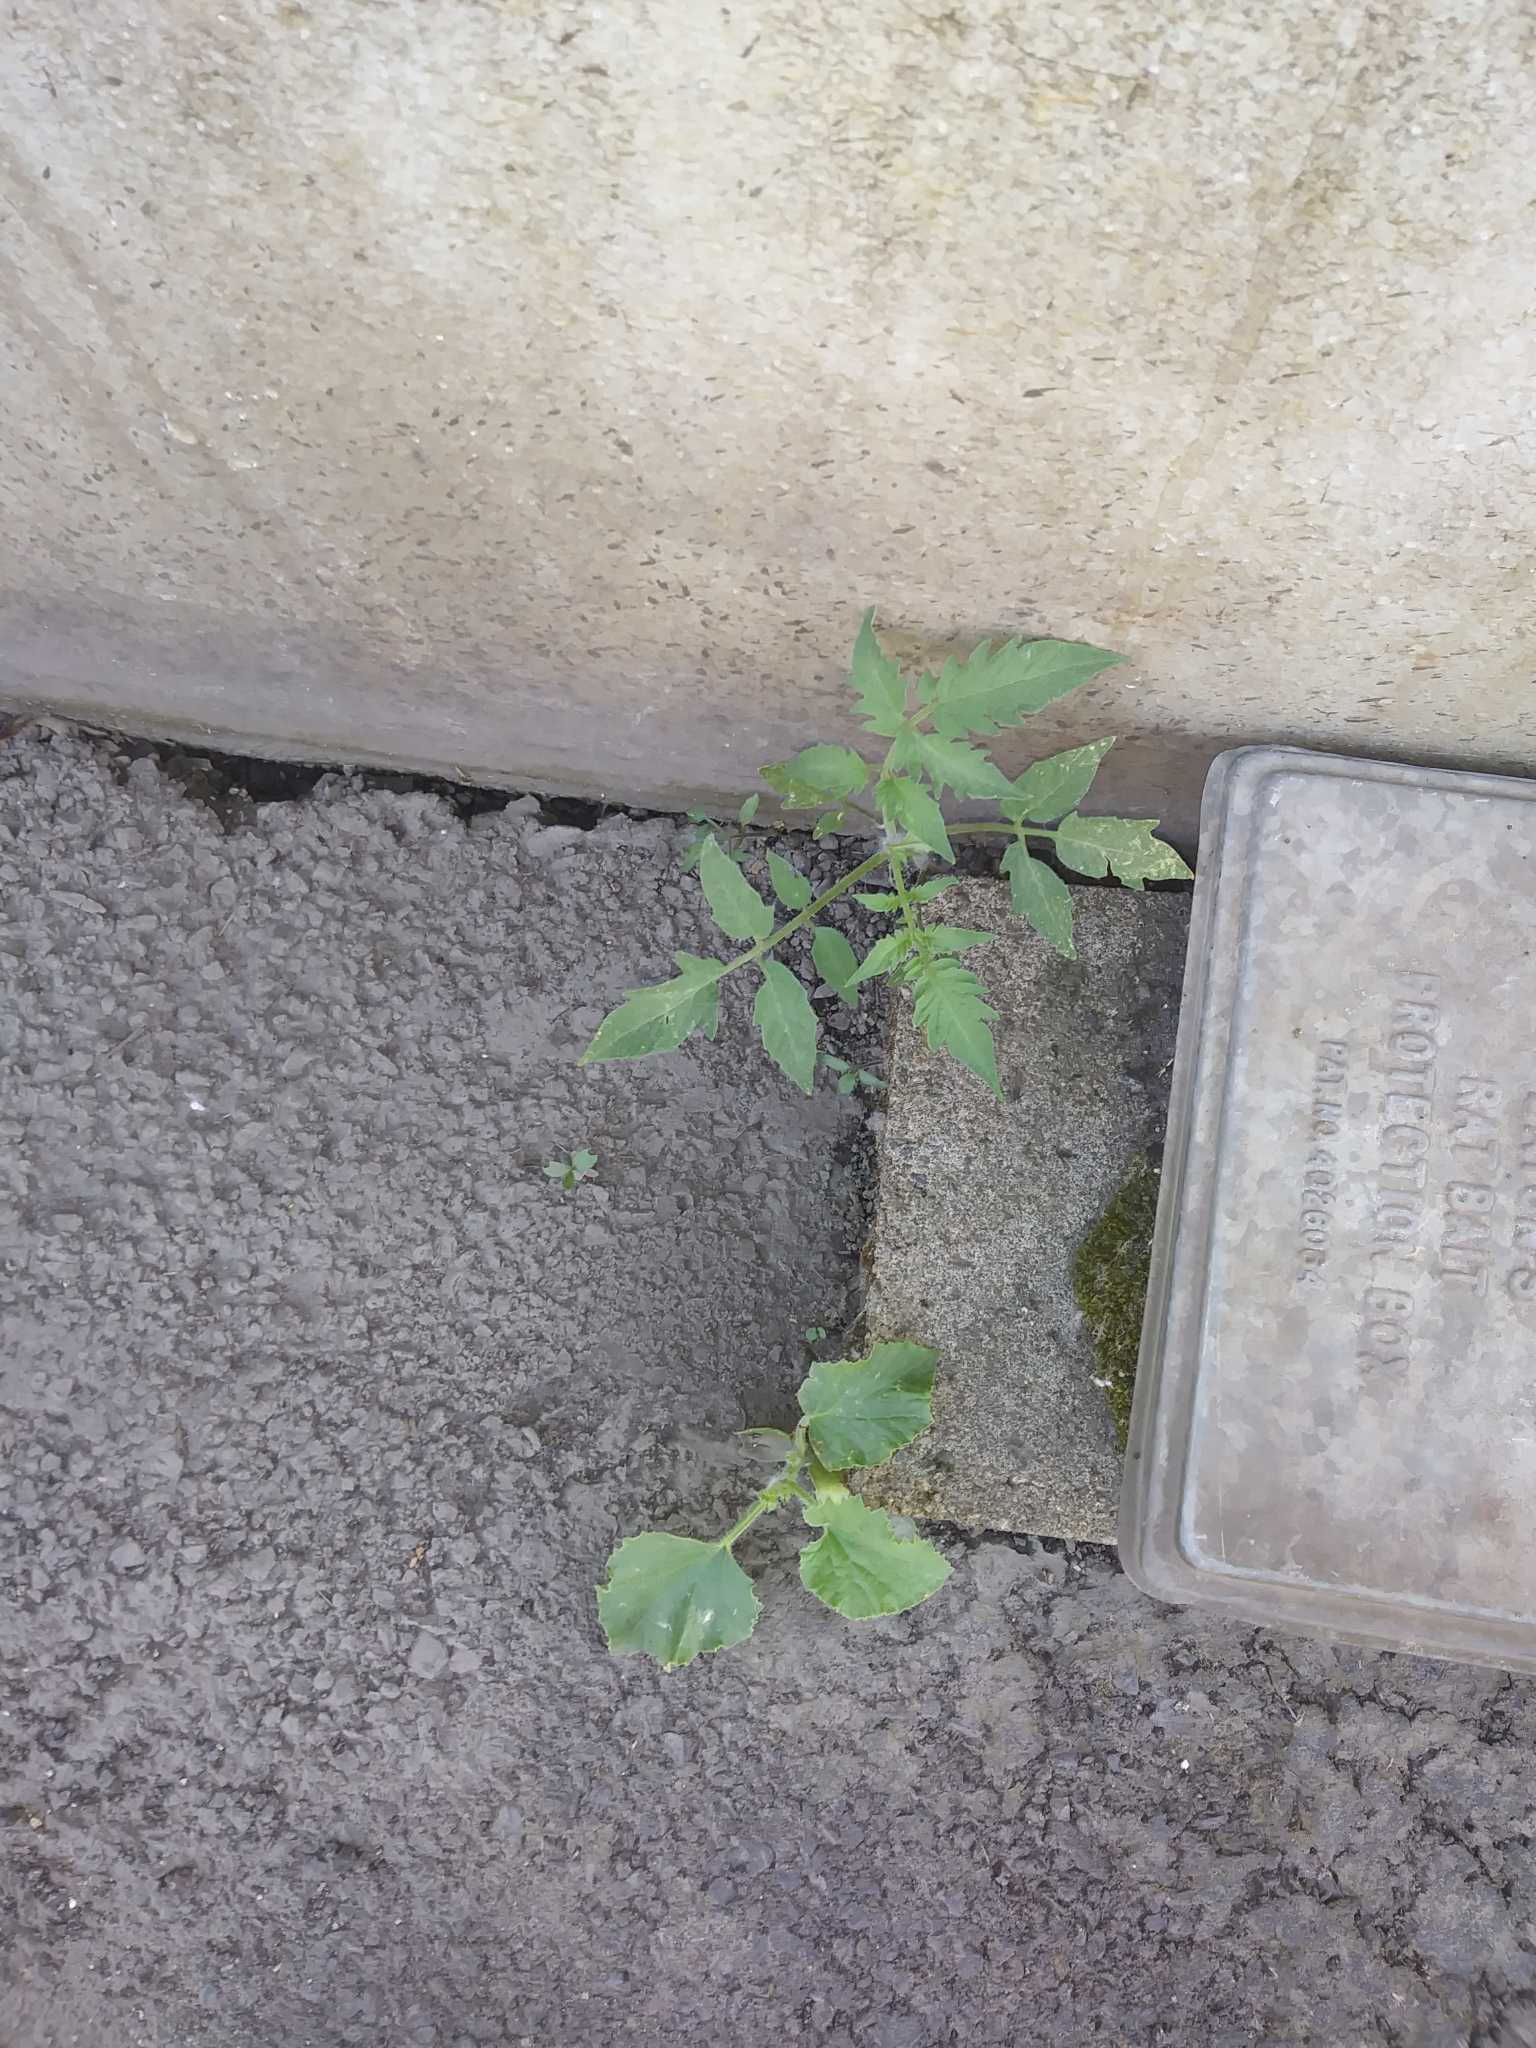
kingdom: Plantae
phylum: Tracheophyta
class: Magnoliopsida
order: Solanales
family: Solanaceae
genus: Solanum
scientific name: Solanum lycopersicum
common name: Garden tomato
